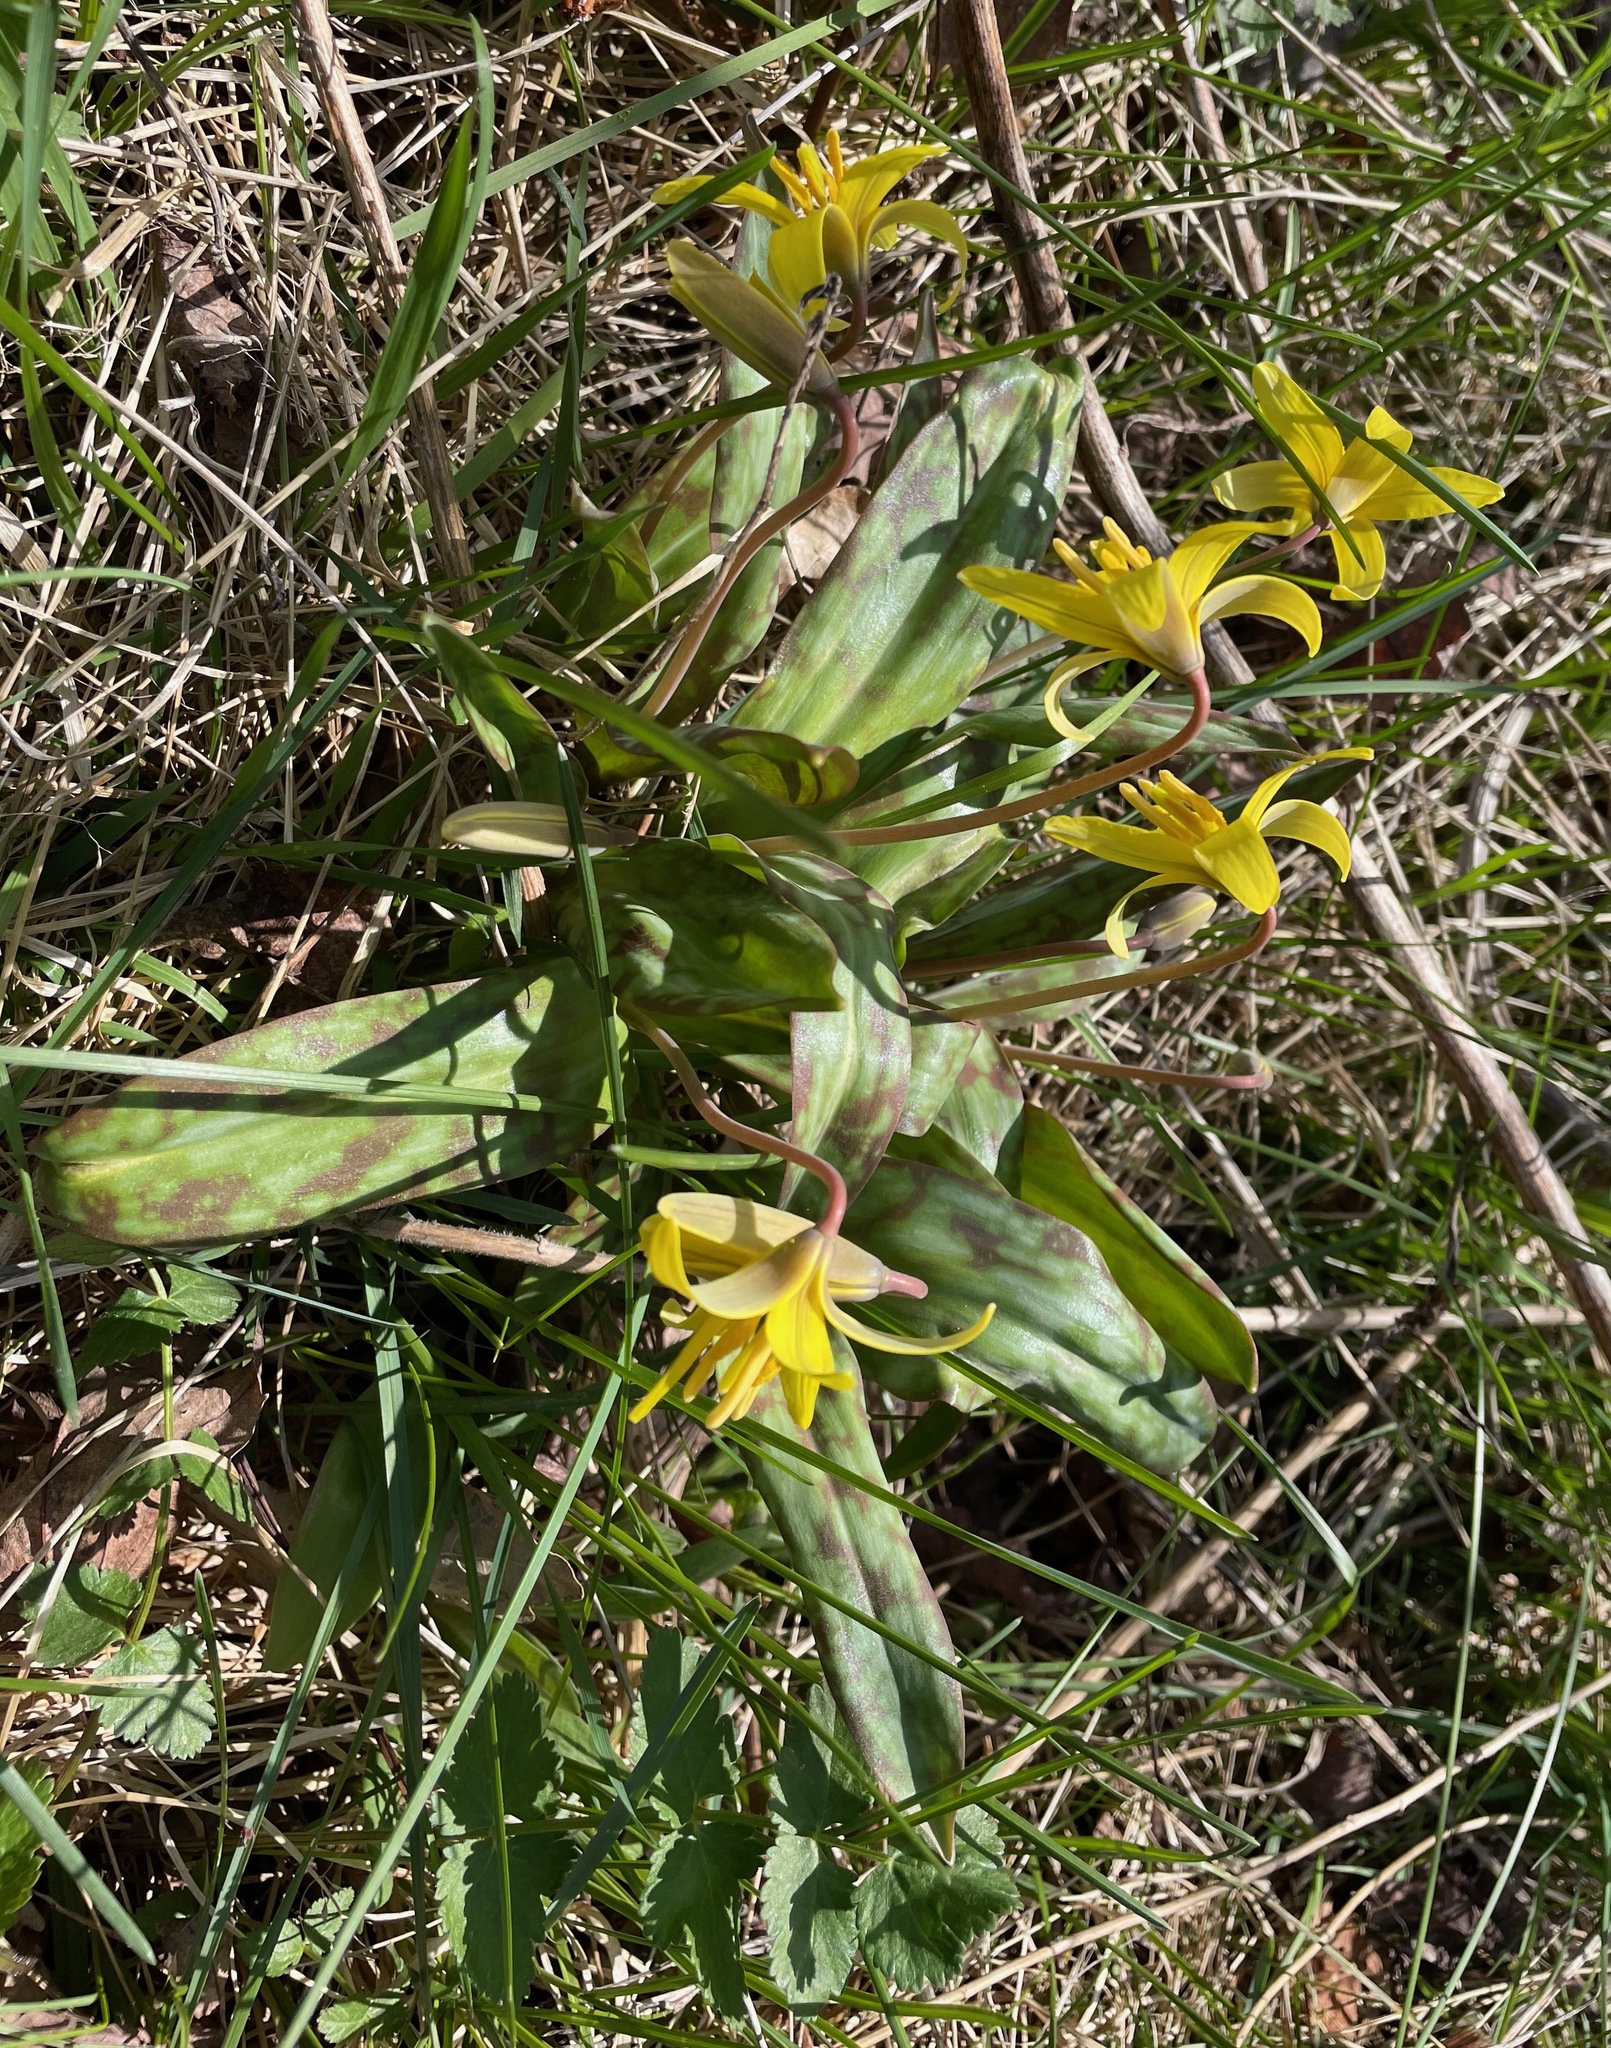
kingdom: Plantae
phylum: Tracheophyta
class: Liliopsida
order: Liliales
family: Liliaceae
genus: Erythronium
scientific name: Erythronium americanum
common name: Yellow adder's-tongue
